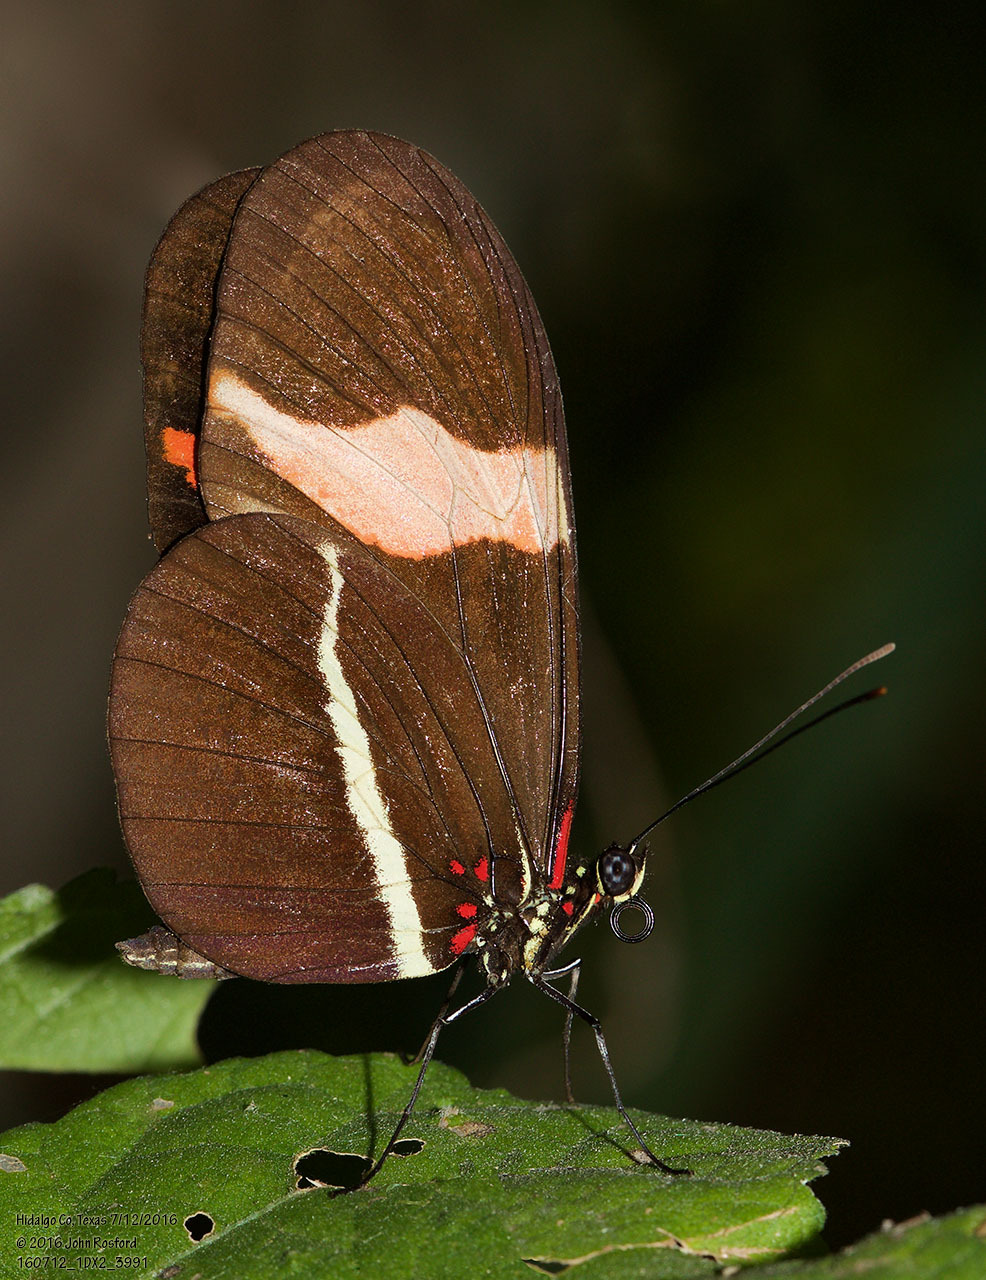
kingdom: Animalia
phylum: Arthropoda
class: Insecta
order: Lepidoptera
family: Nymphalidae
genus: Heliconius
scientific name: Heliconius erato
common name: Common patch longwing
